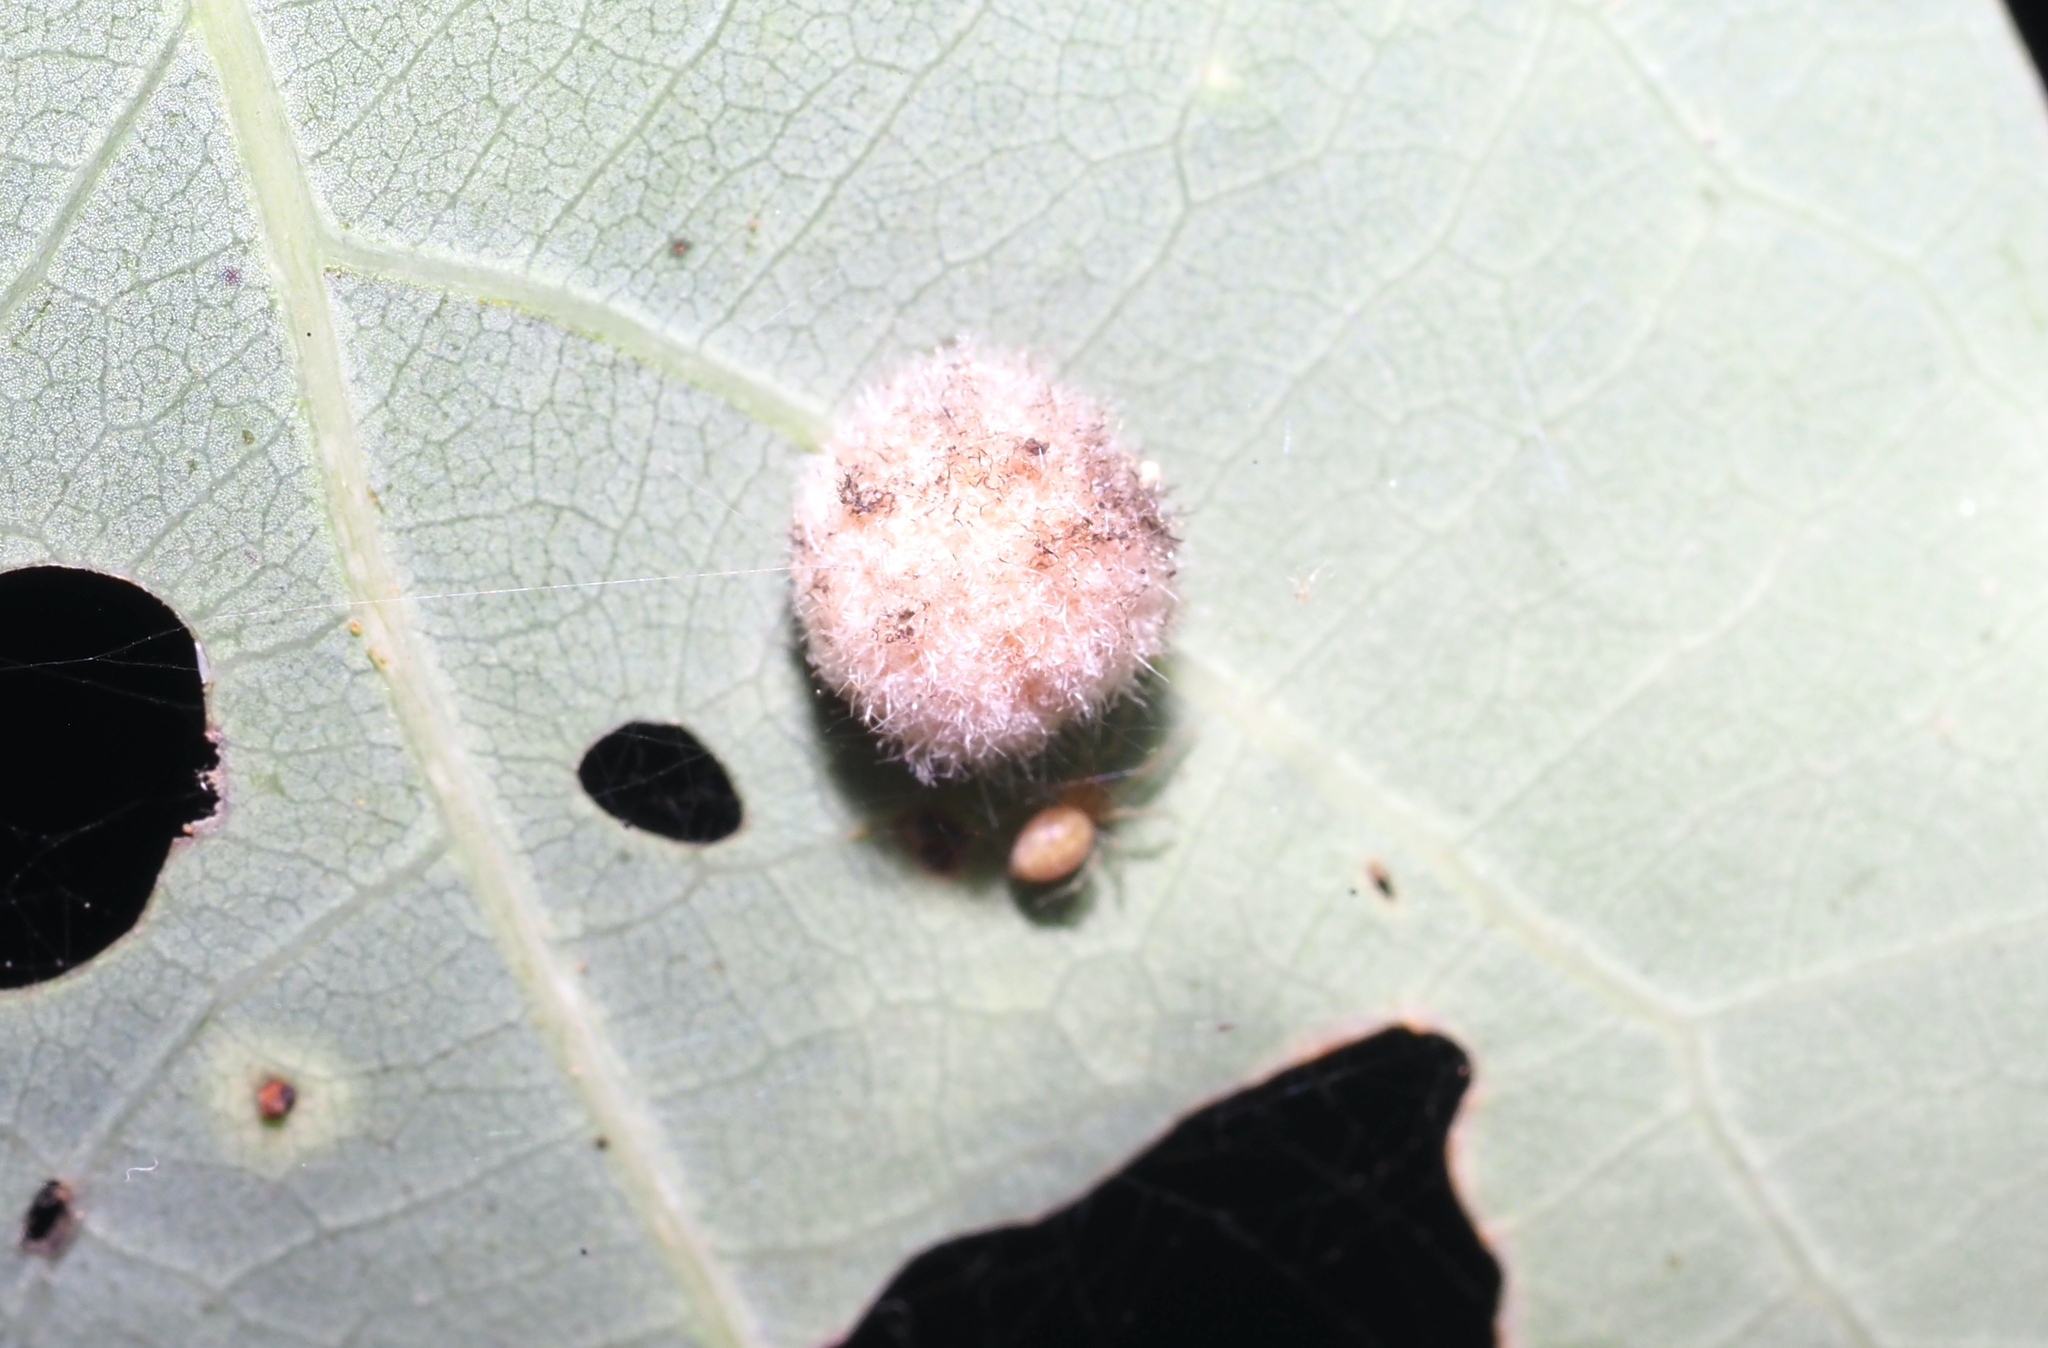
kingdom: Animalia
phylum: Arthropoda
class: Insecta
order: Hymenoptera
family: Cynipidae
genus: Philonix
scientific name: Philonix fulvicollis
